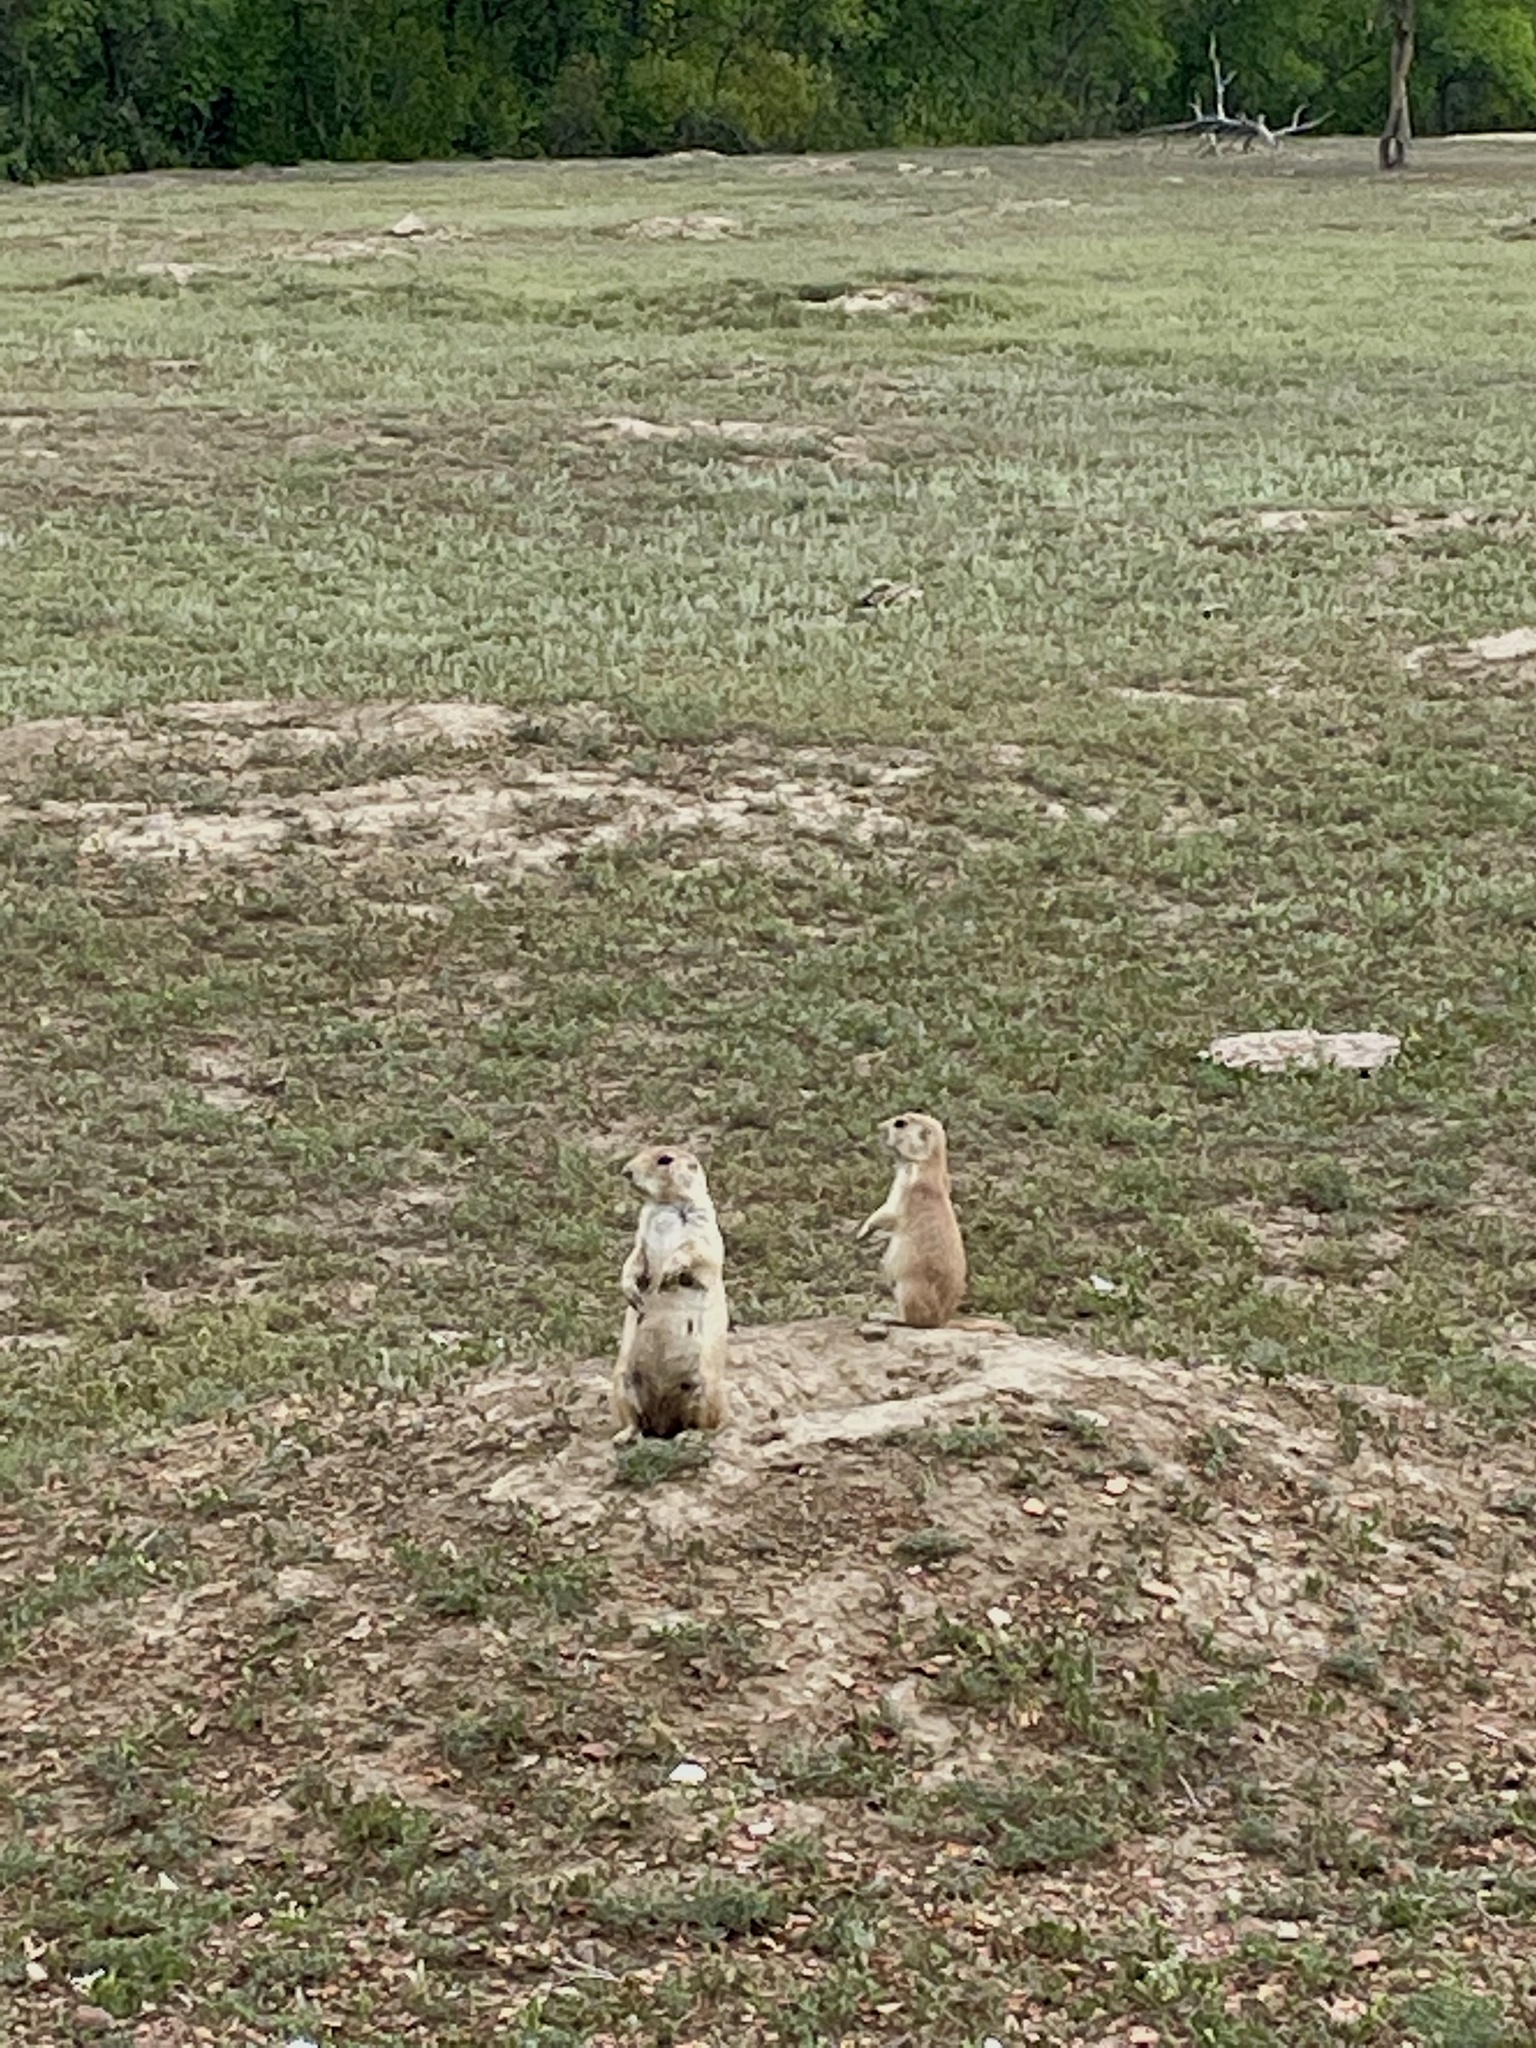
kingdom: Animalia
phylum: Chordata
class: Mammalia
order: Rodentia
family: Sciuridae
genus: Cynomys
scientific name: Cynomys ludovicianus
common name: Black-tailed prairie dog
